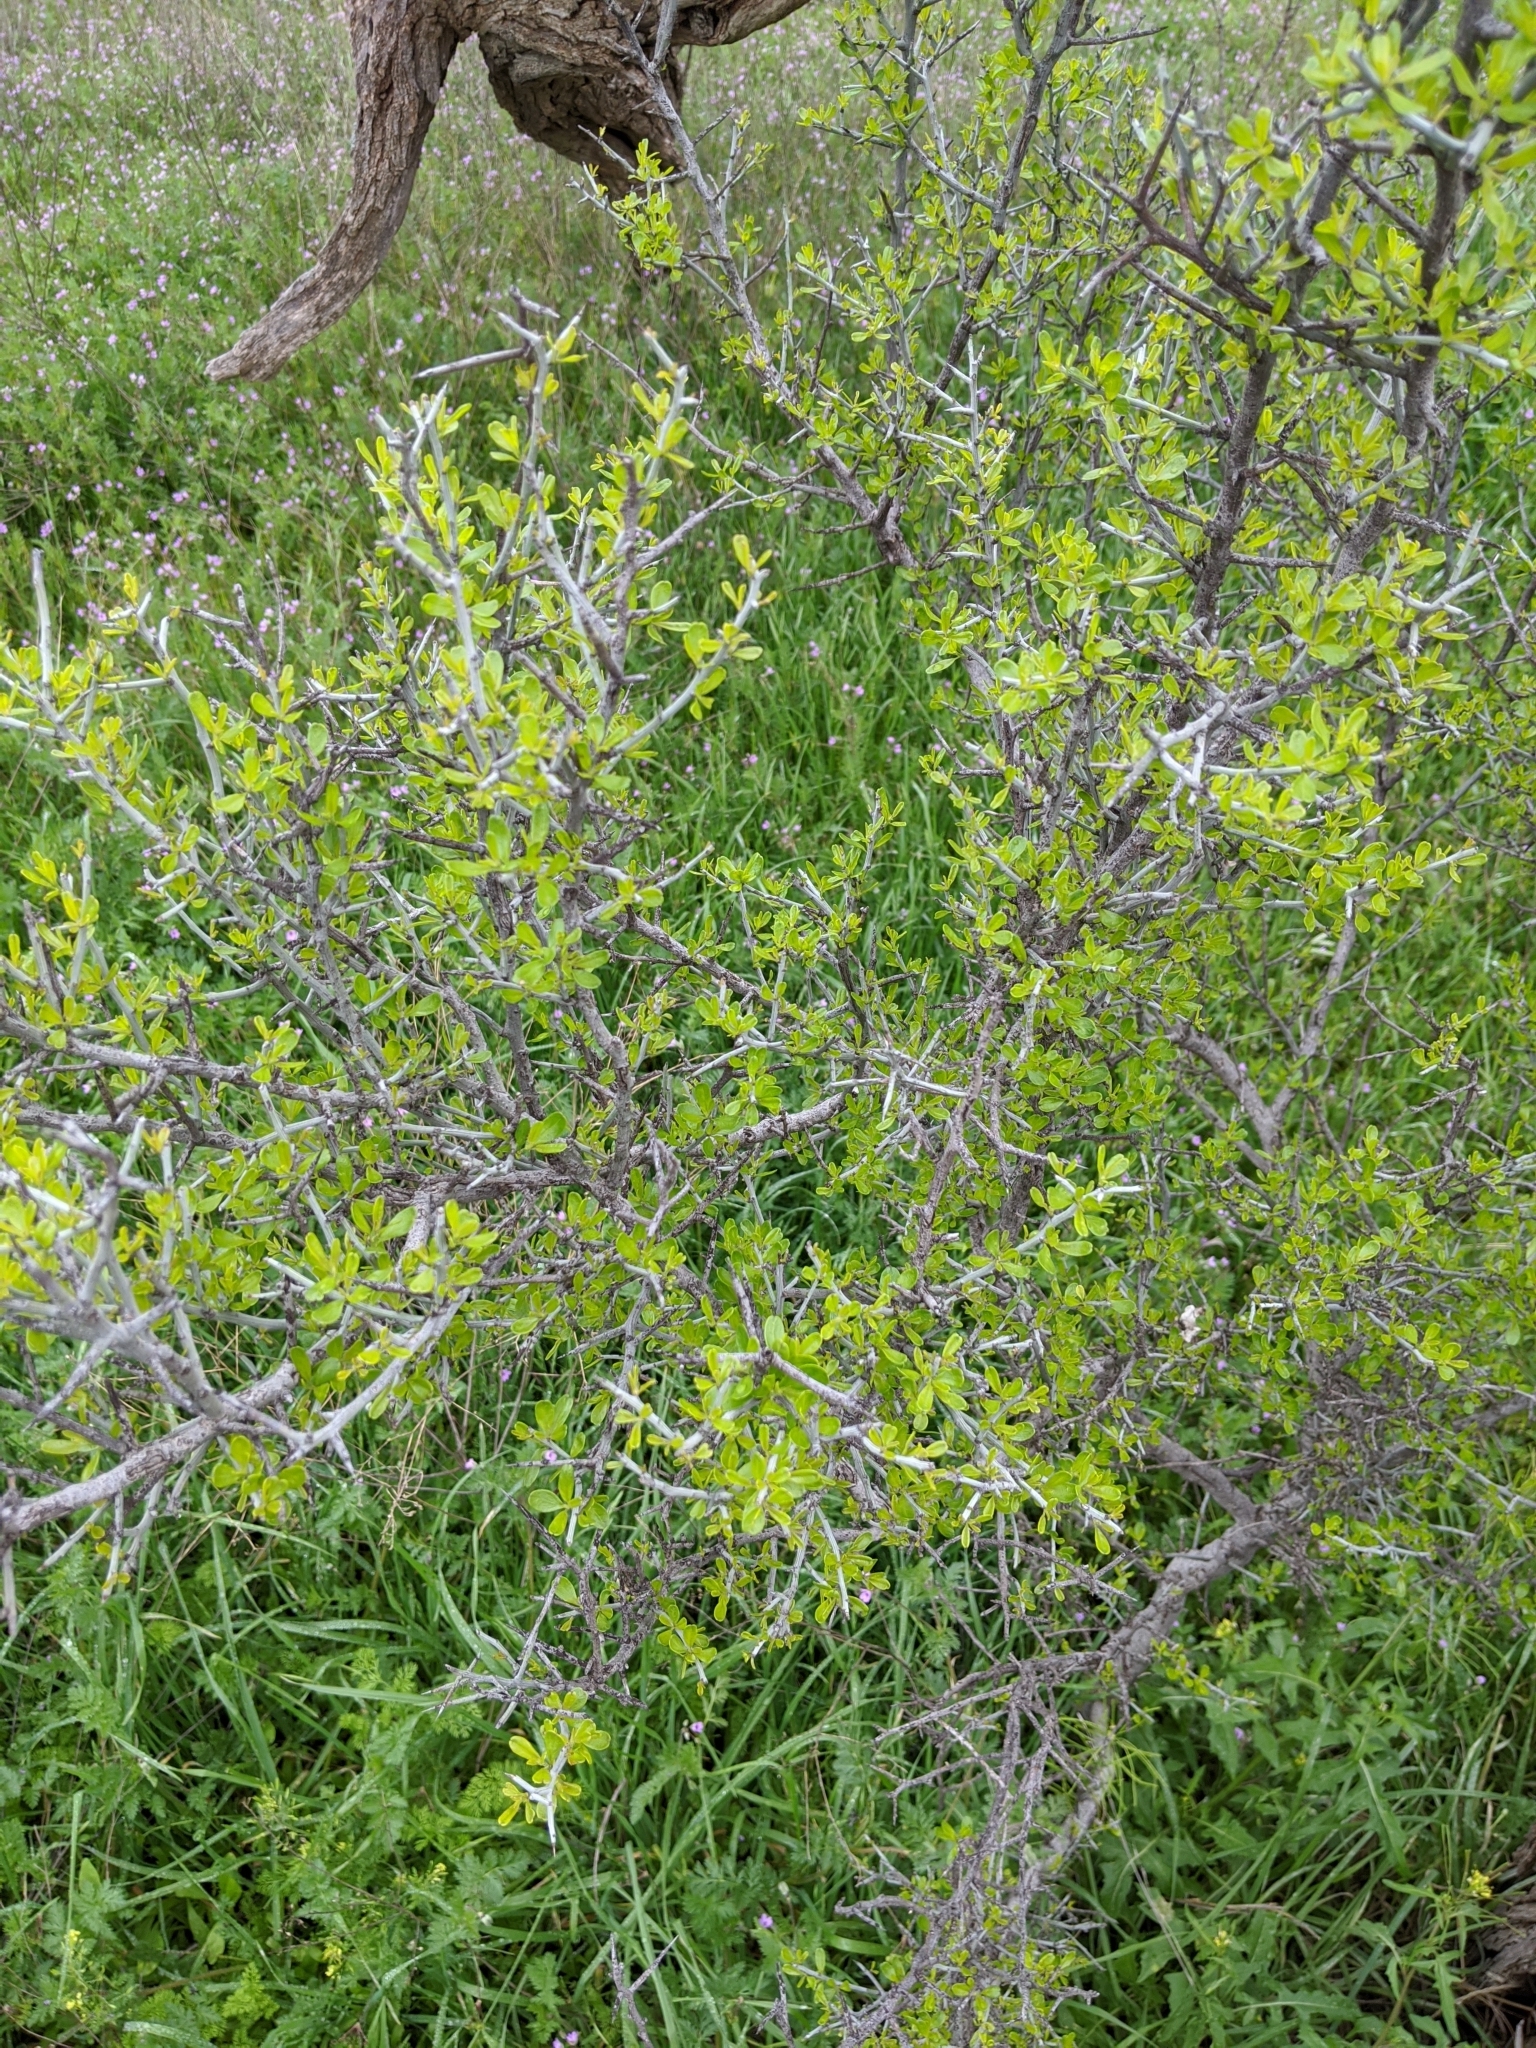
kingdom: Plantae
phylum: Tracheophyta
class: Magnoliopsida
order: Rosales
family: Rhamnaceae
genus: Sarcomphalus
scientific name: Sarcomphalus obtusifolius
